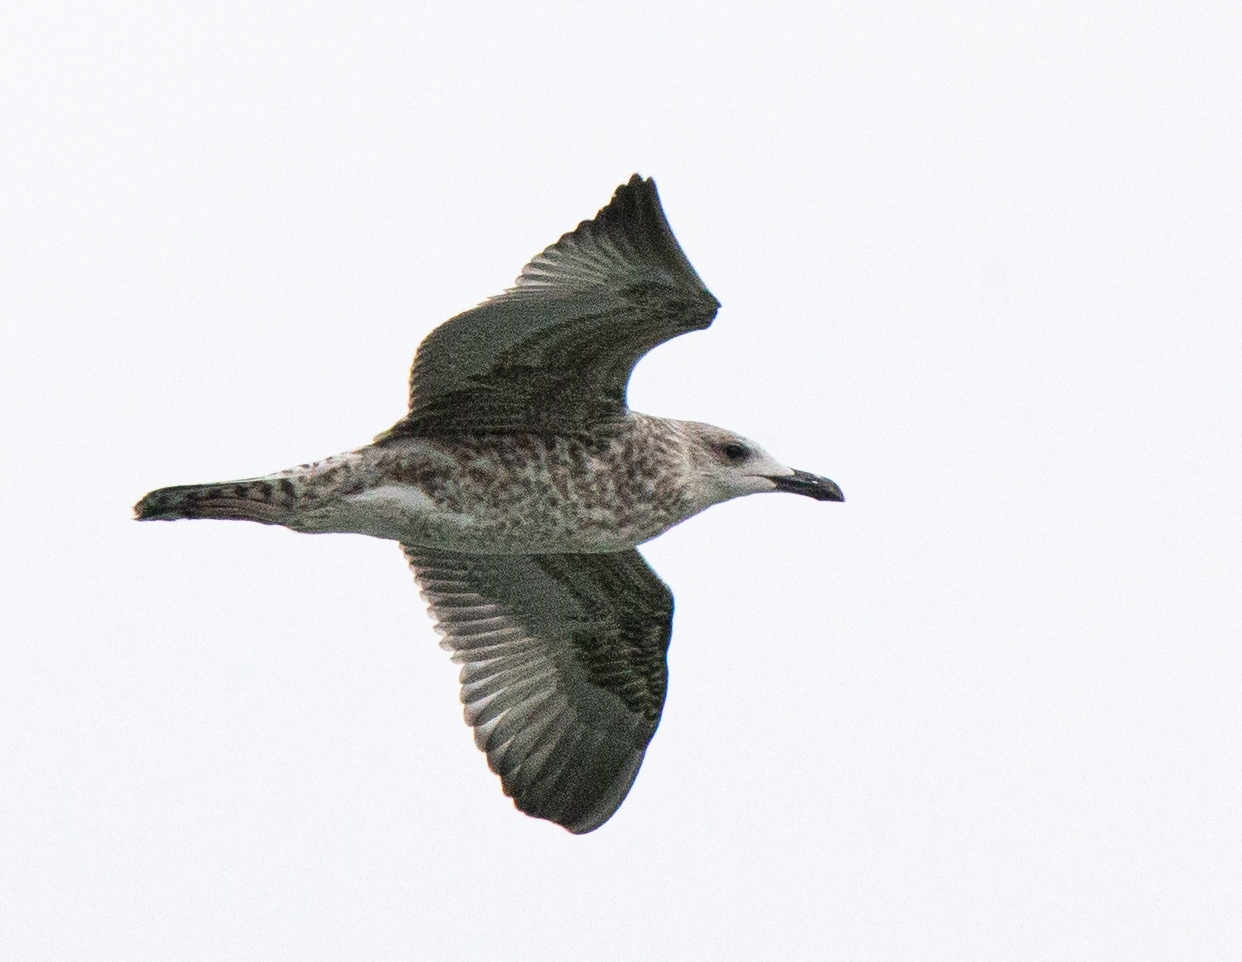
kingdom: Animalia
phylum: Chordata
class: Aves
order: Charadriiformes
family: Laridae
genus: Larus
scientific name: Larus michahellis
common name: Yellow-legged gull
